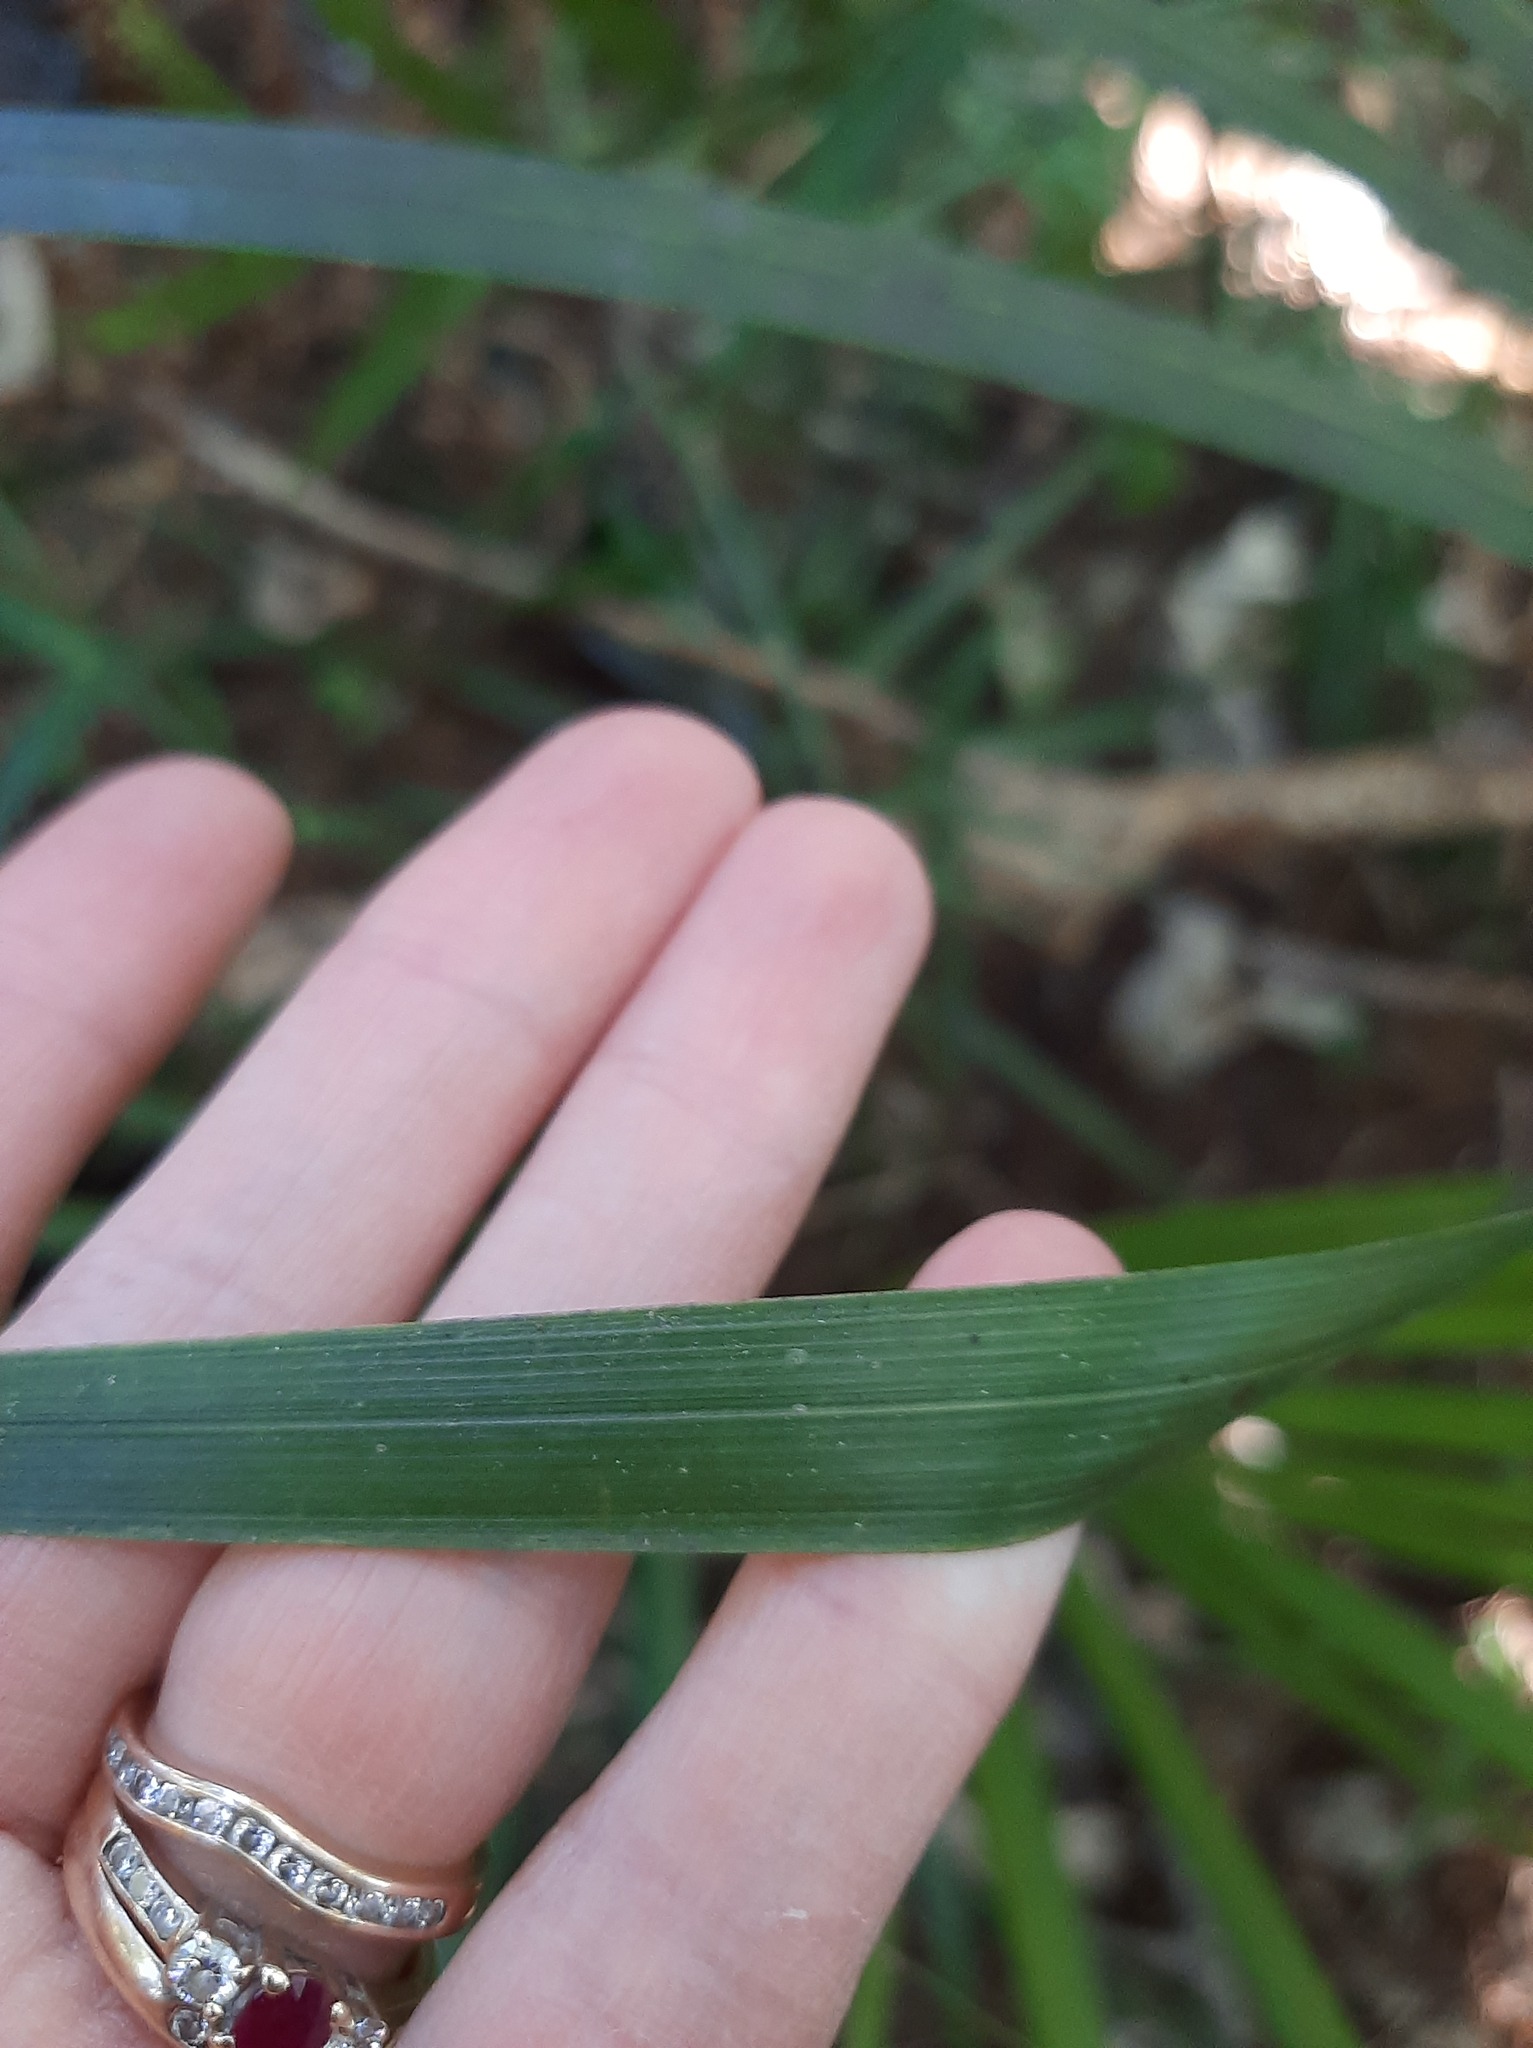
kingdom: Plantae
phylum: Tracheophyta
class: Liliopsida
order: Arecales
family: Arecaceae
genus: Rhopalostylis
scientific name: Rhopalostylis sapida
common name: Feather-duster palm
